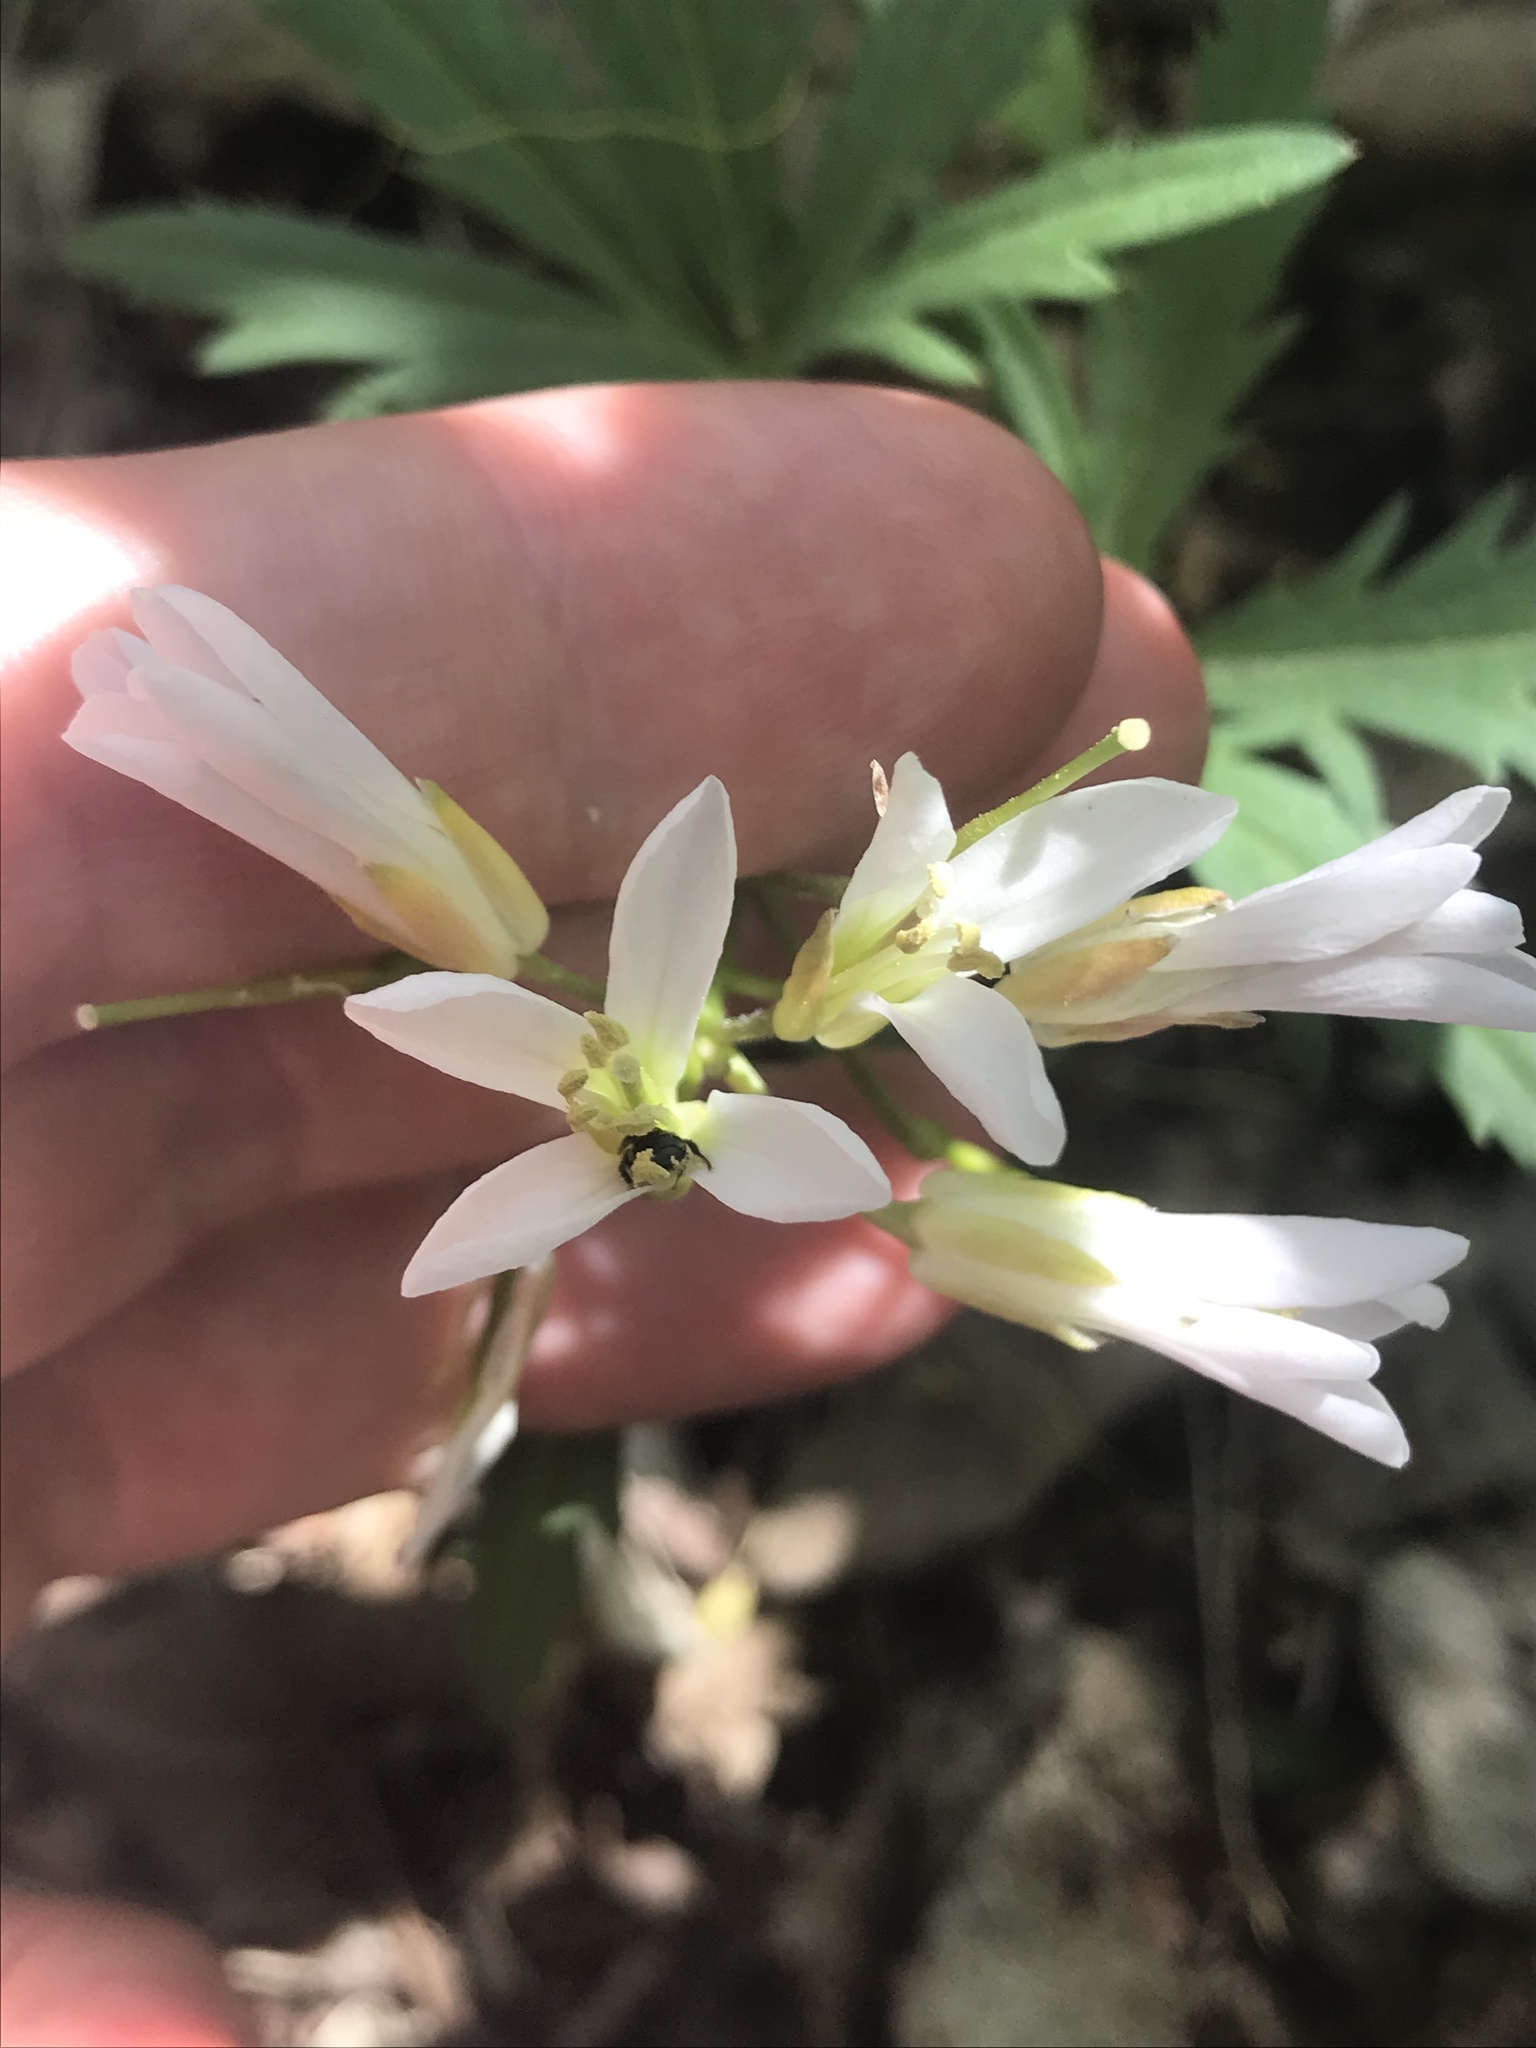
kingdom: Plantae
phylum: Tracheophyta
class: Magnoliopsida
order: Brassicales
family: Brassicaceae
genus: Cardamine
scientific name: Cardamine concatenata
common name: Cut-leaf toothcup
